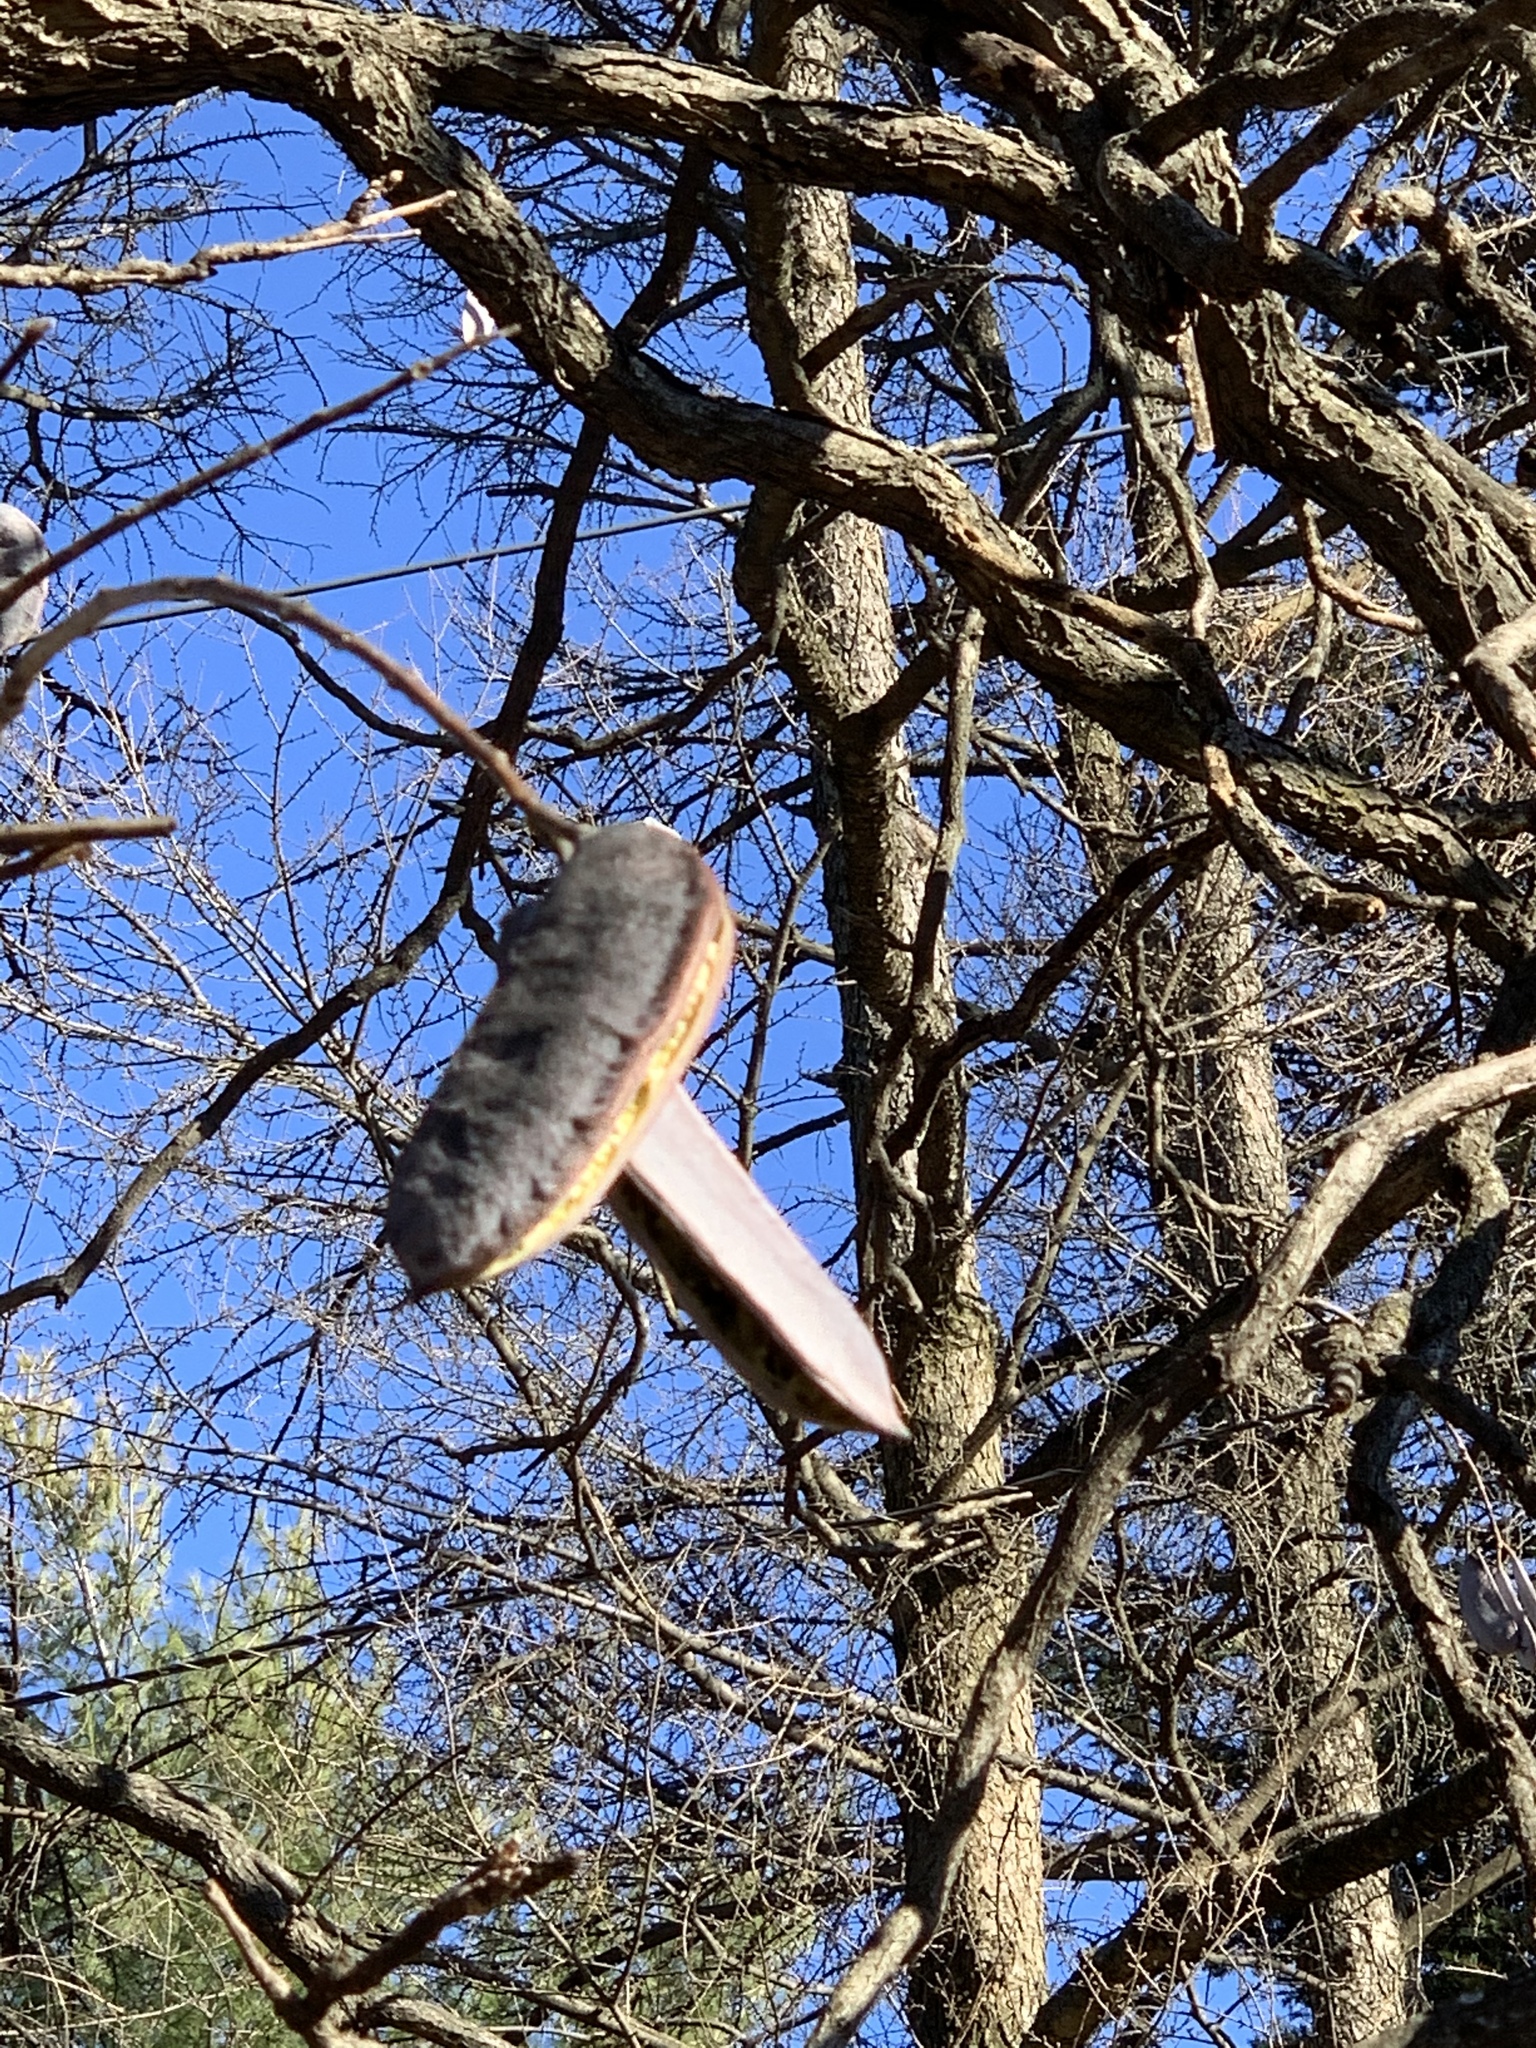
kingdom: Plantae
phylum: Tracheophyta
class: Magnoliopsida
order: Fabales
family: Fabaceae
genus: Gymnocladus
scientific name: Gymnocladus dioicus
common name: Kentucky coffee-tree
